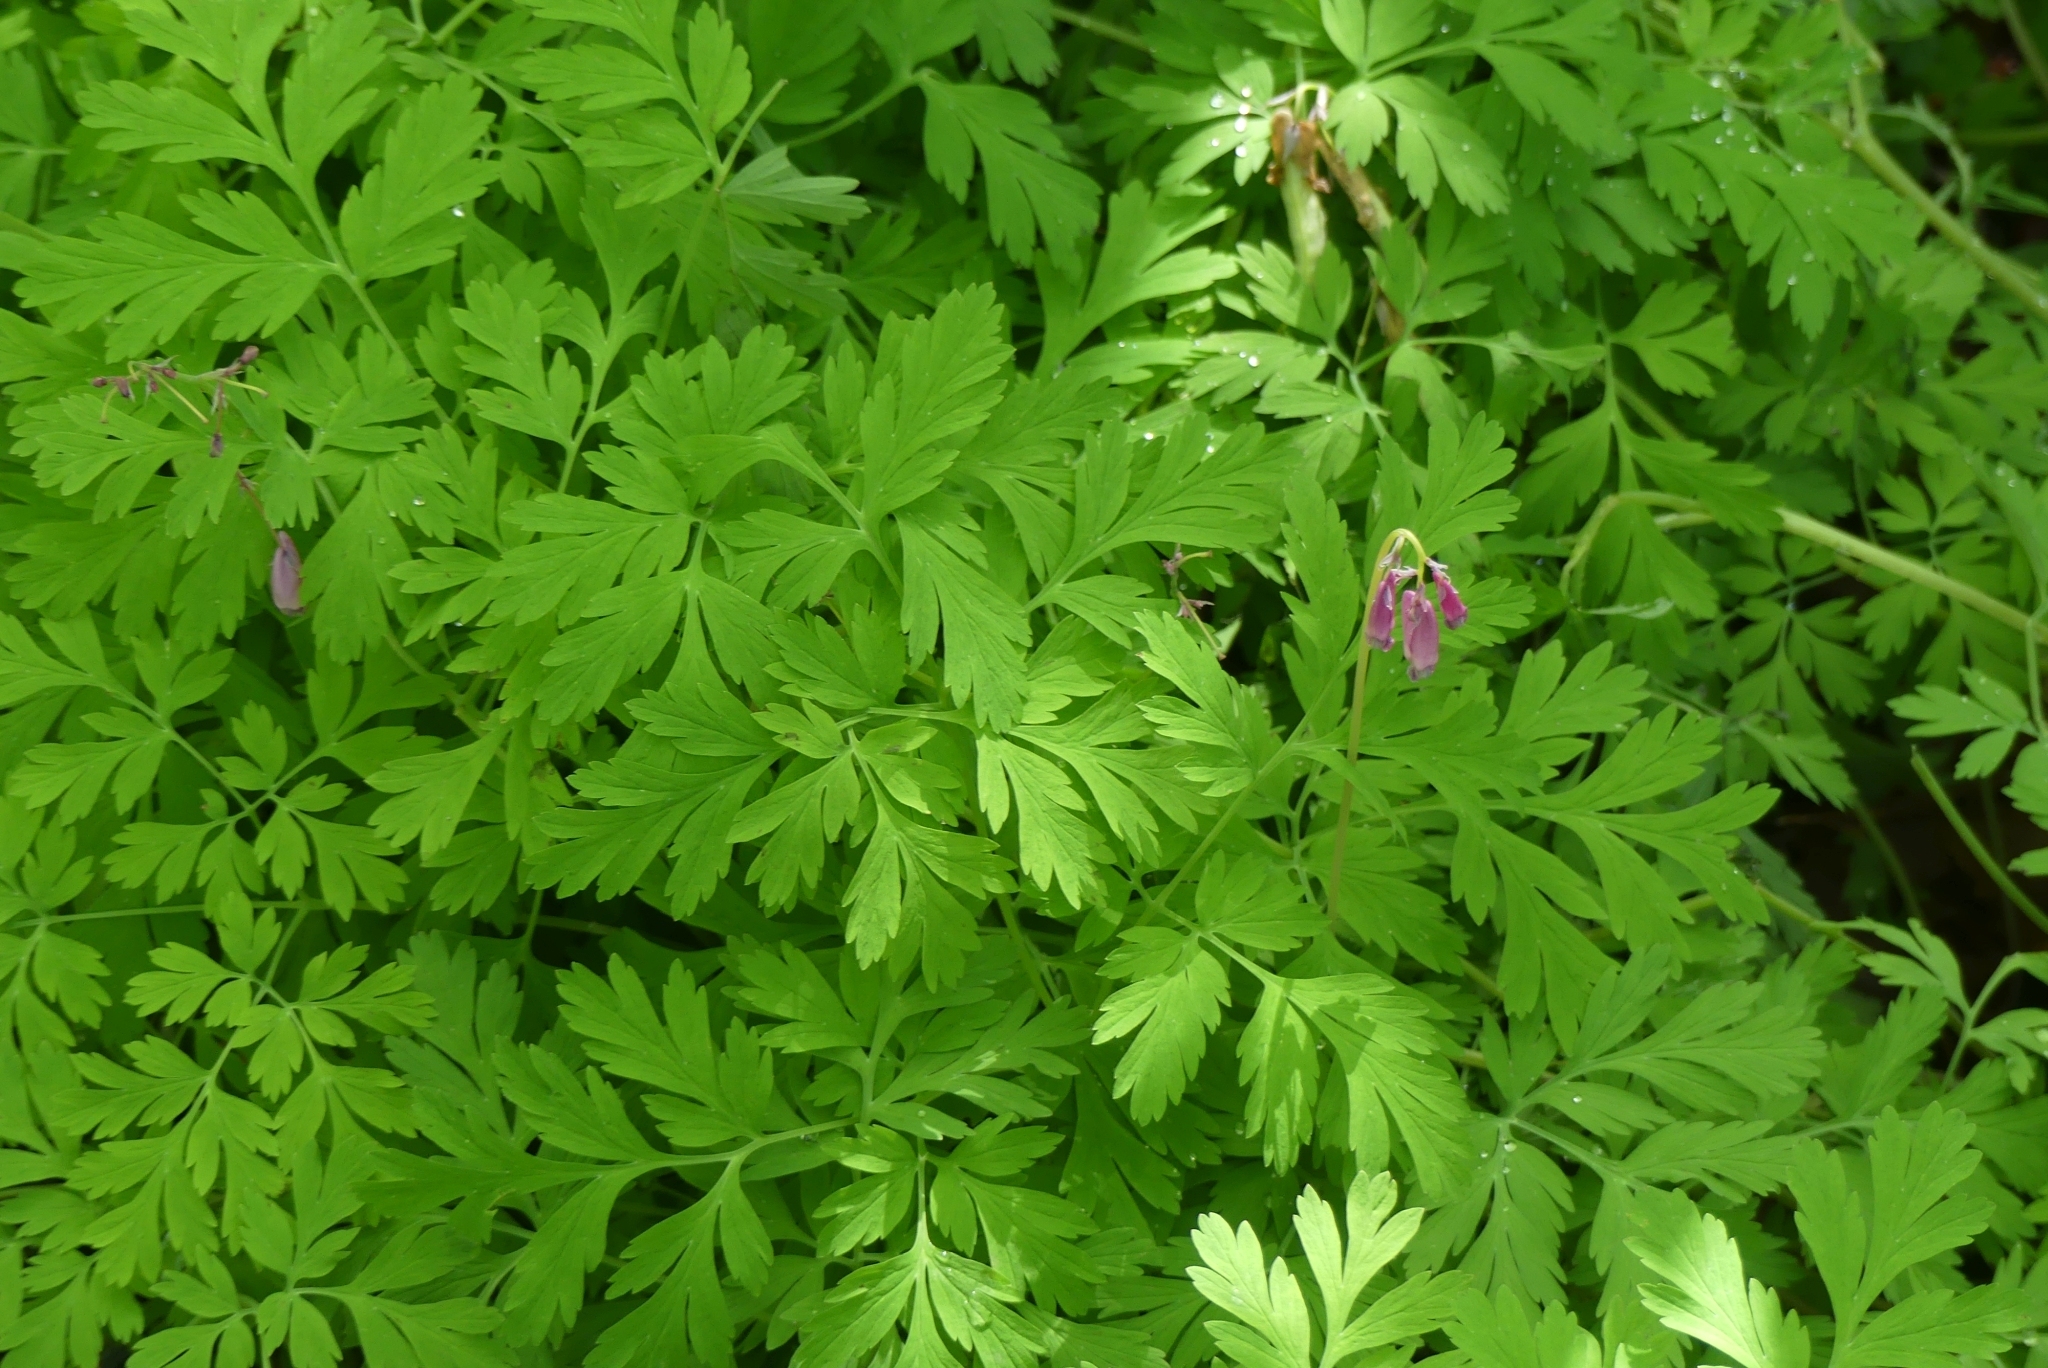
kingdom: Plantae
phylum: Tracheophyta
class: Magnoliopsida
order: Ranunculales
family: Papaveraceae
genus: Dicentra
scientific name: Dicentra formosa
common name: Bleeding-heart
